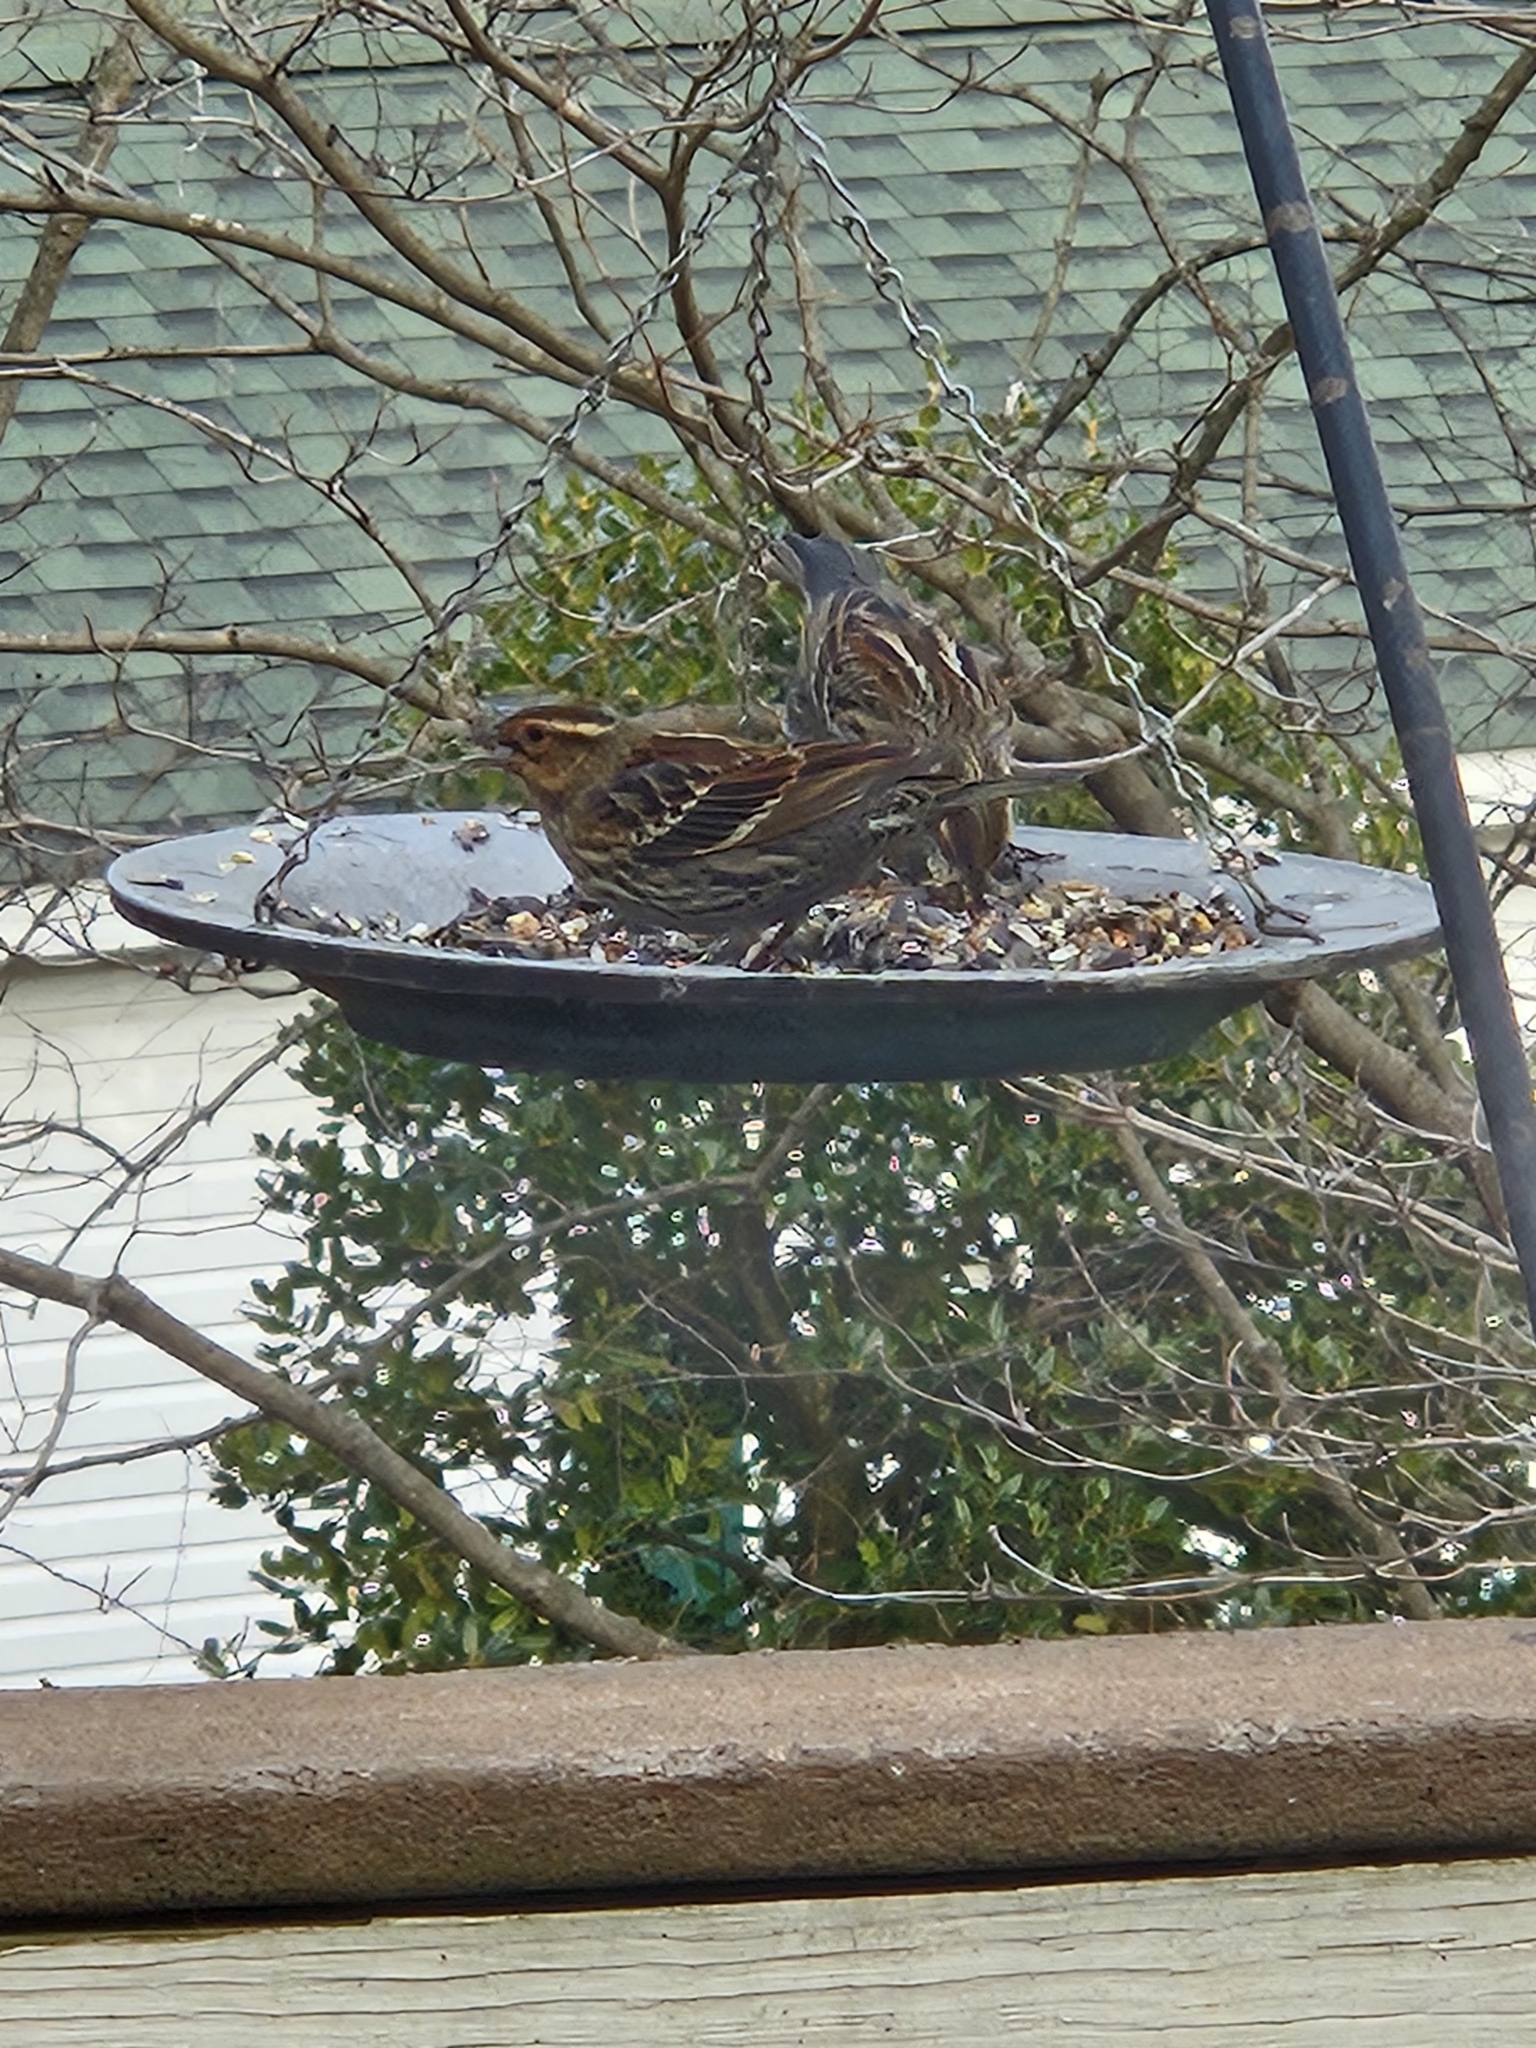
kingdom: Animalia
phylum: Chordata
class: Aves
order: Passeriformes
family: Icteridae
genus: Agelaius
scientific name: Agelaius phoeniceus
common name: Red-winged blackbird
